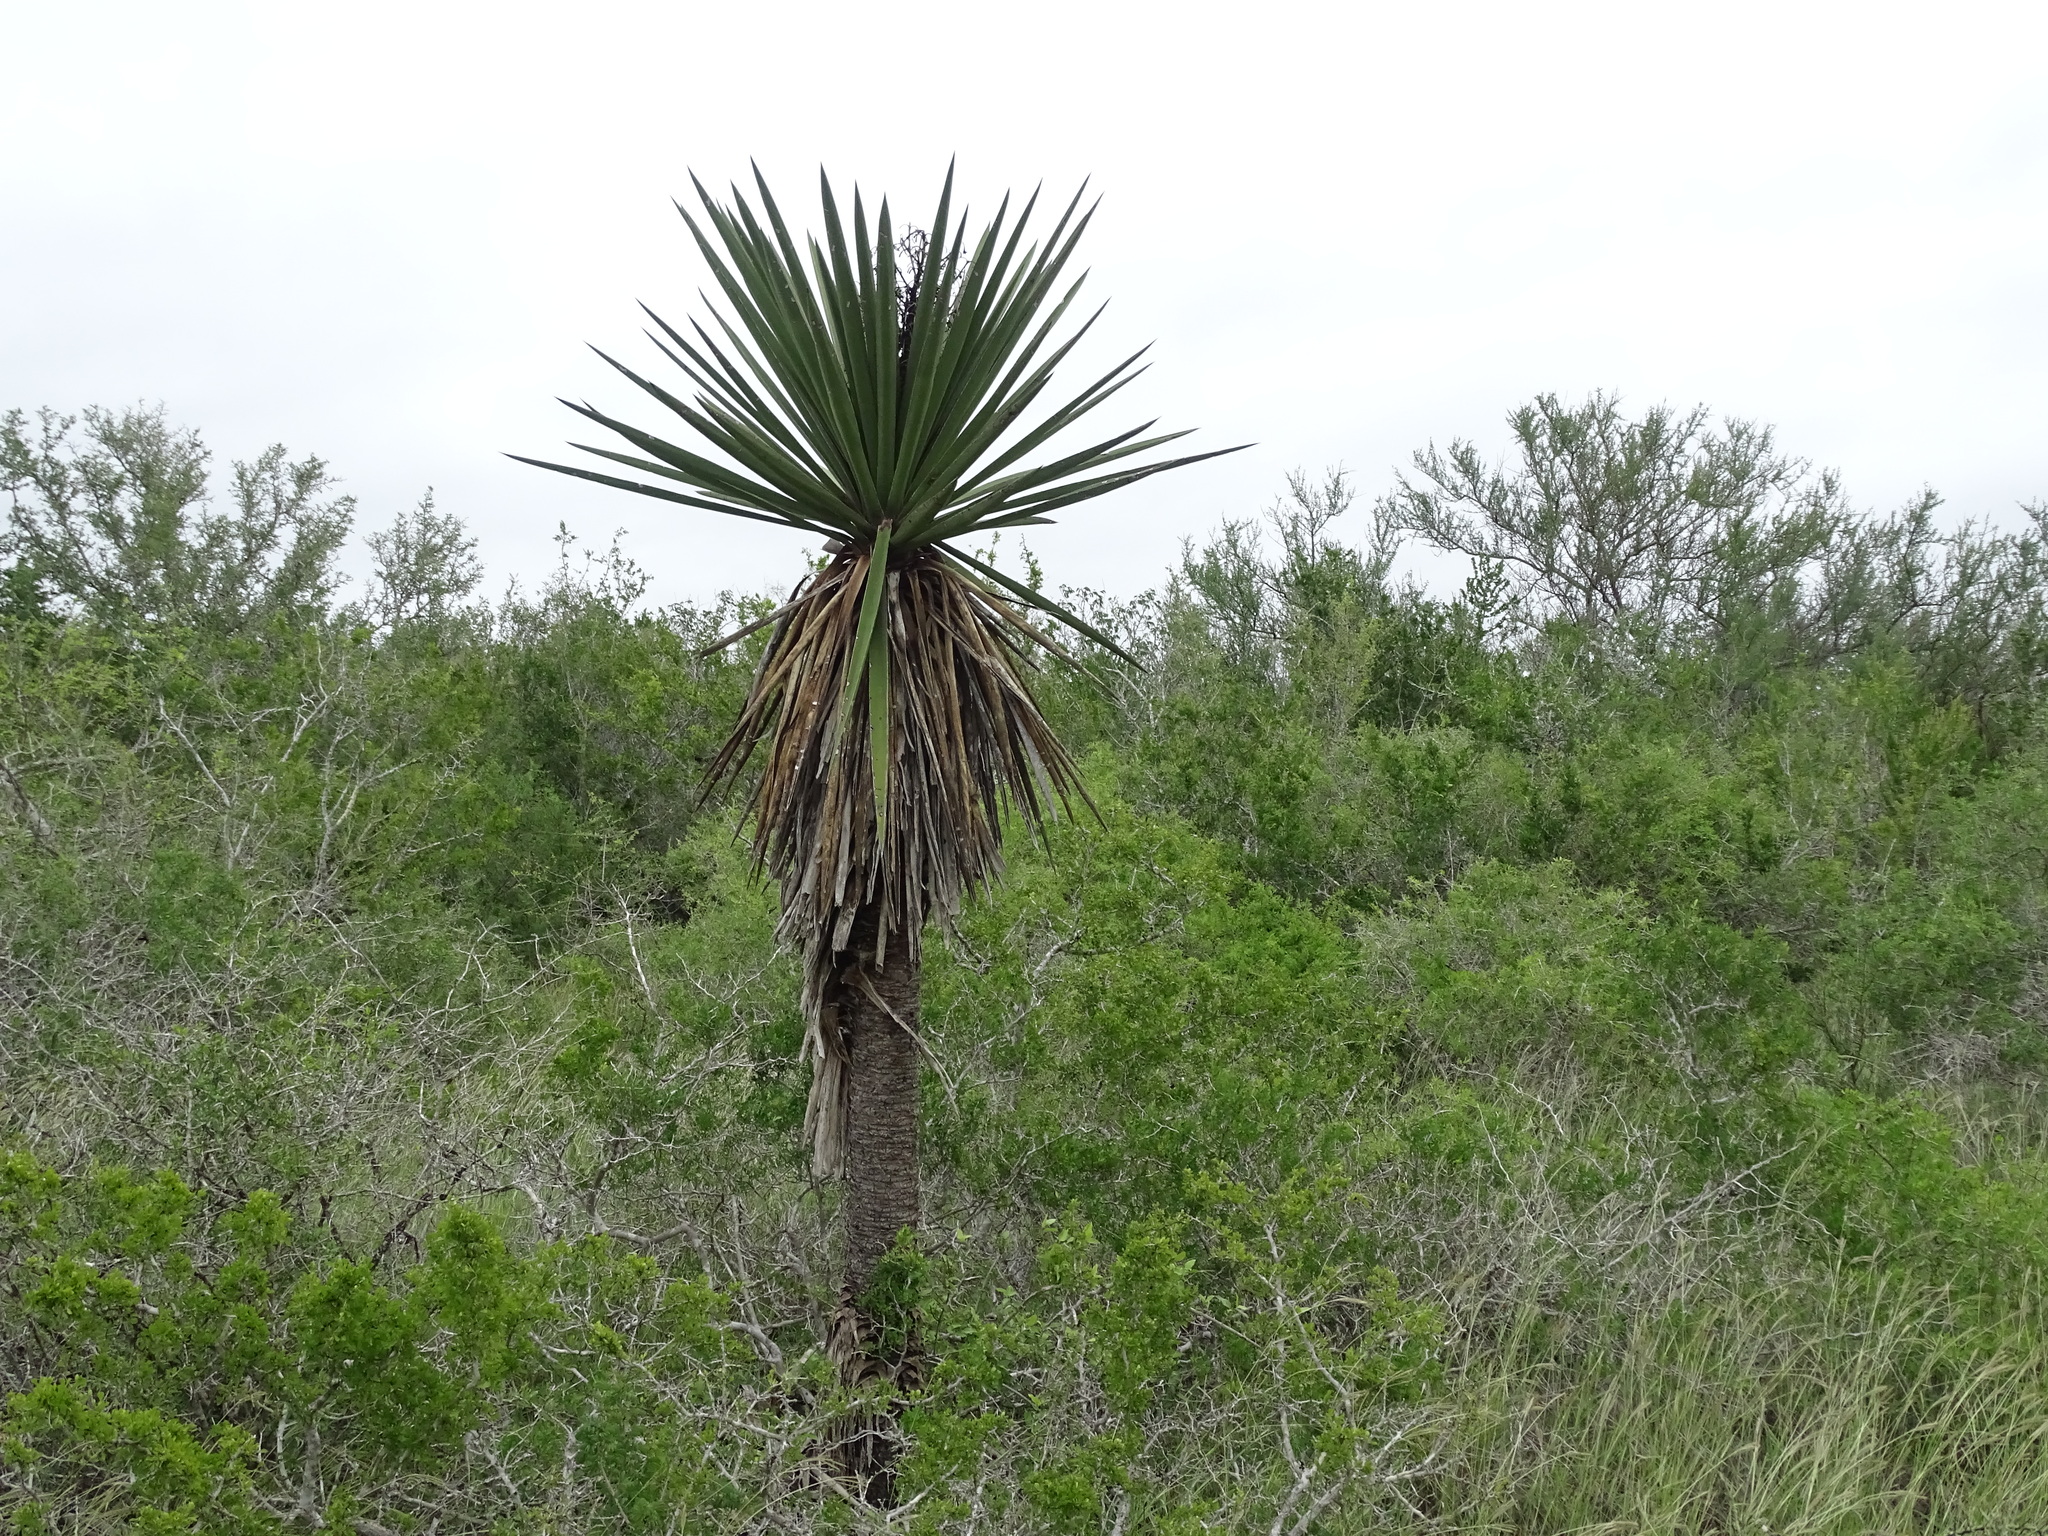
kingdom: Plantae
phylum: Tracheophyta
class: Liliopsida
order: Asparagales
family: Asparagaceae
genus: Yucca
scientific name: Yucca treculiana
